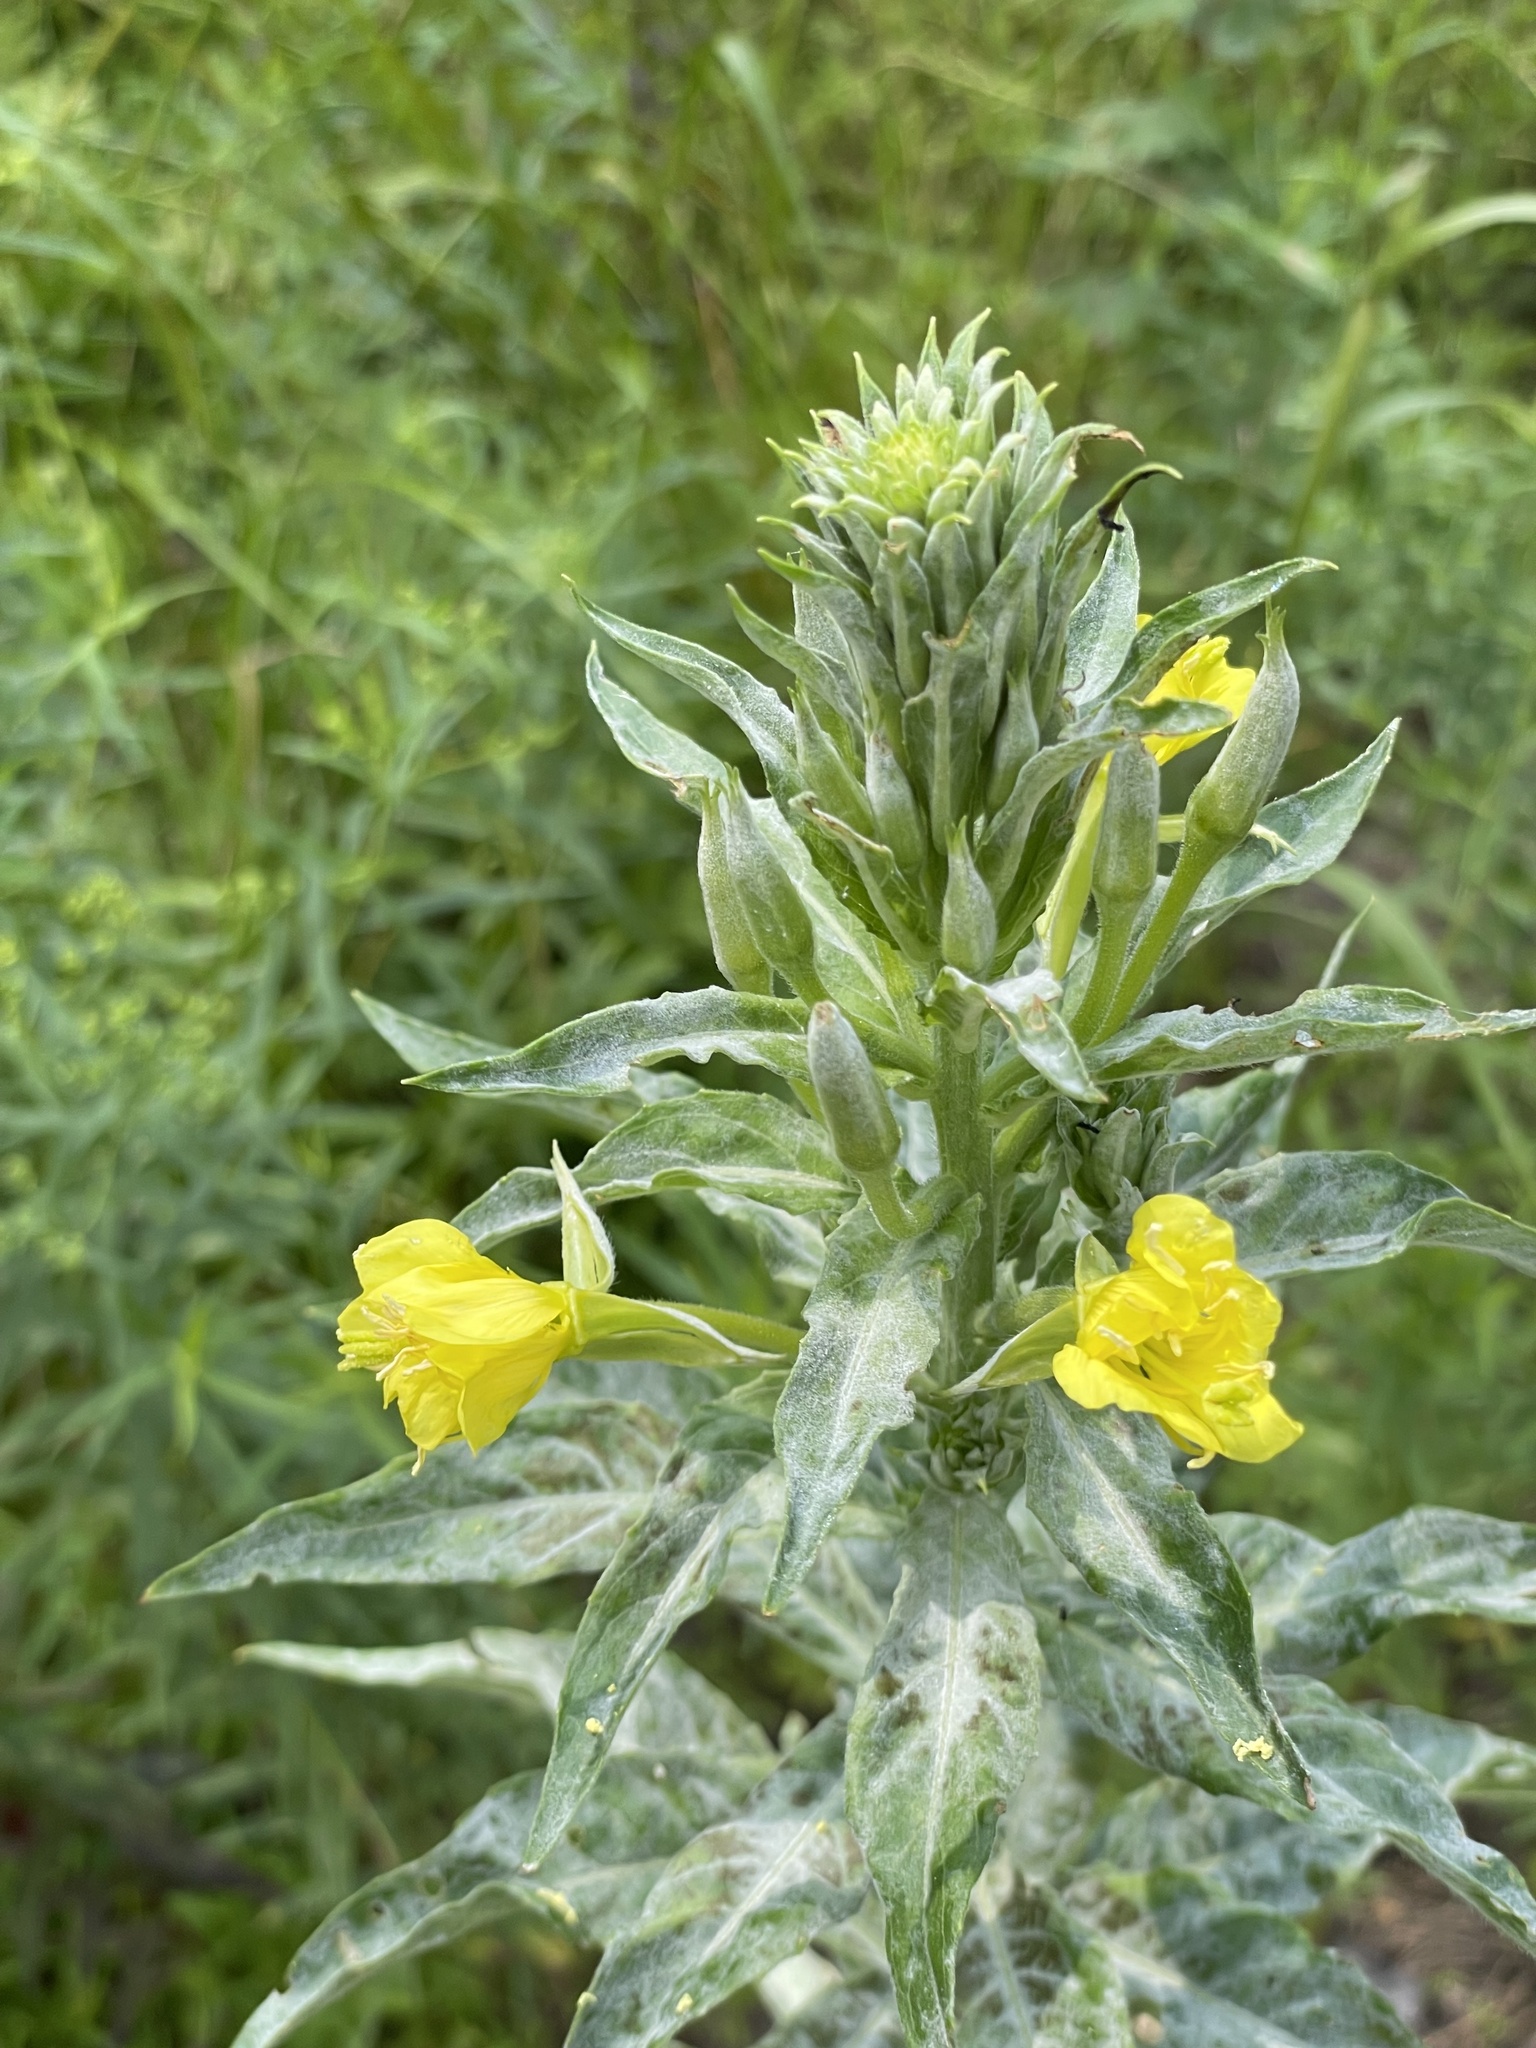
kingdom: Plantae
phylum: Tracheophyta
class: Magnoliopsida
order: Myrtales
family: Onagraceae
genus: Oenothera
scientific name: Oenothera biennis
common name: Common evening-primrose
